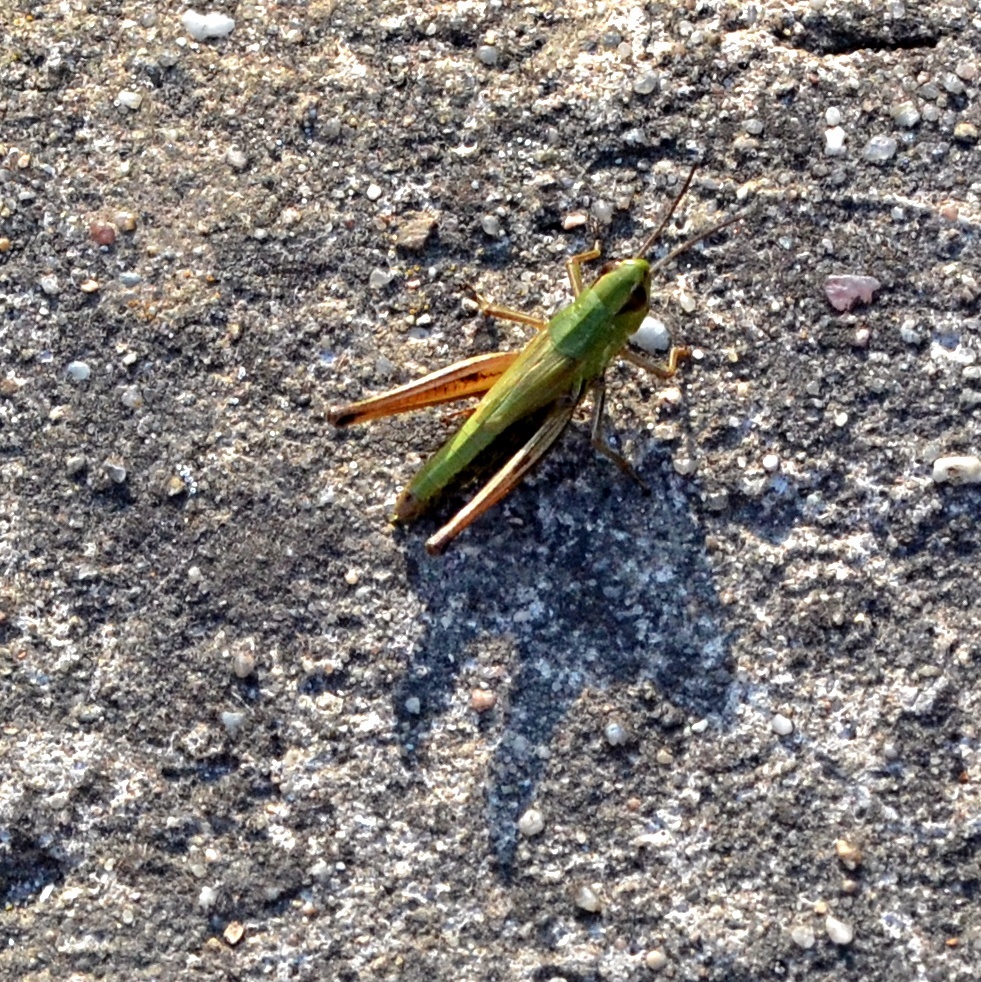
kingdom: Animalia
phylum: Arthropoda
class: Insecta
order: Orthoptera
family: Acrididae
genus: Pseudochorthippus
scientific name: Pseudochorthippus parallelus
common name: Meadow grasshopper
